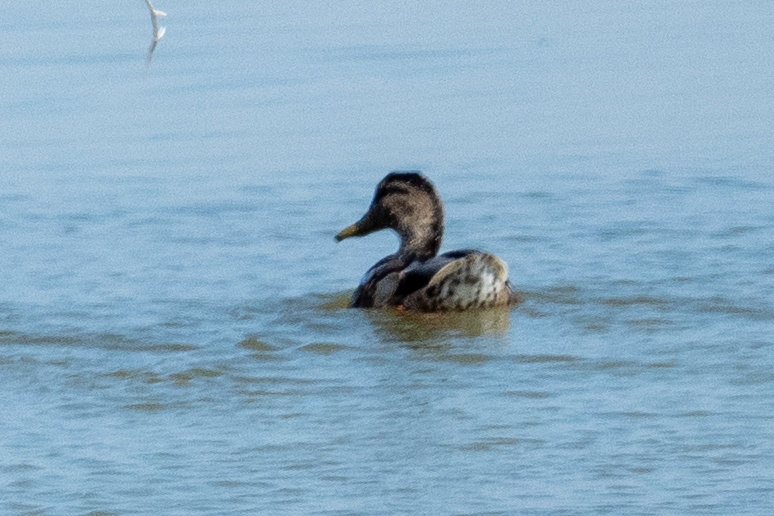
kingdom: Animalia
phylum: Chordata
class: Aves
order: Anseriformes
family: Anatidae
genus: Anas
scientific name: Anas platyrhynchos
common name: Mallard
